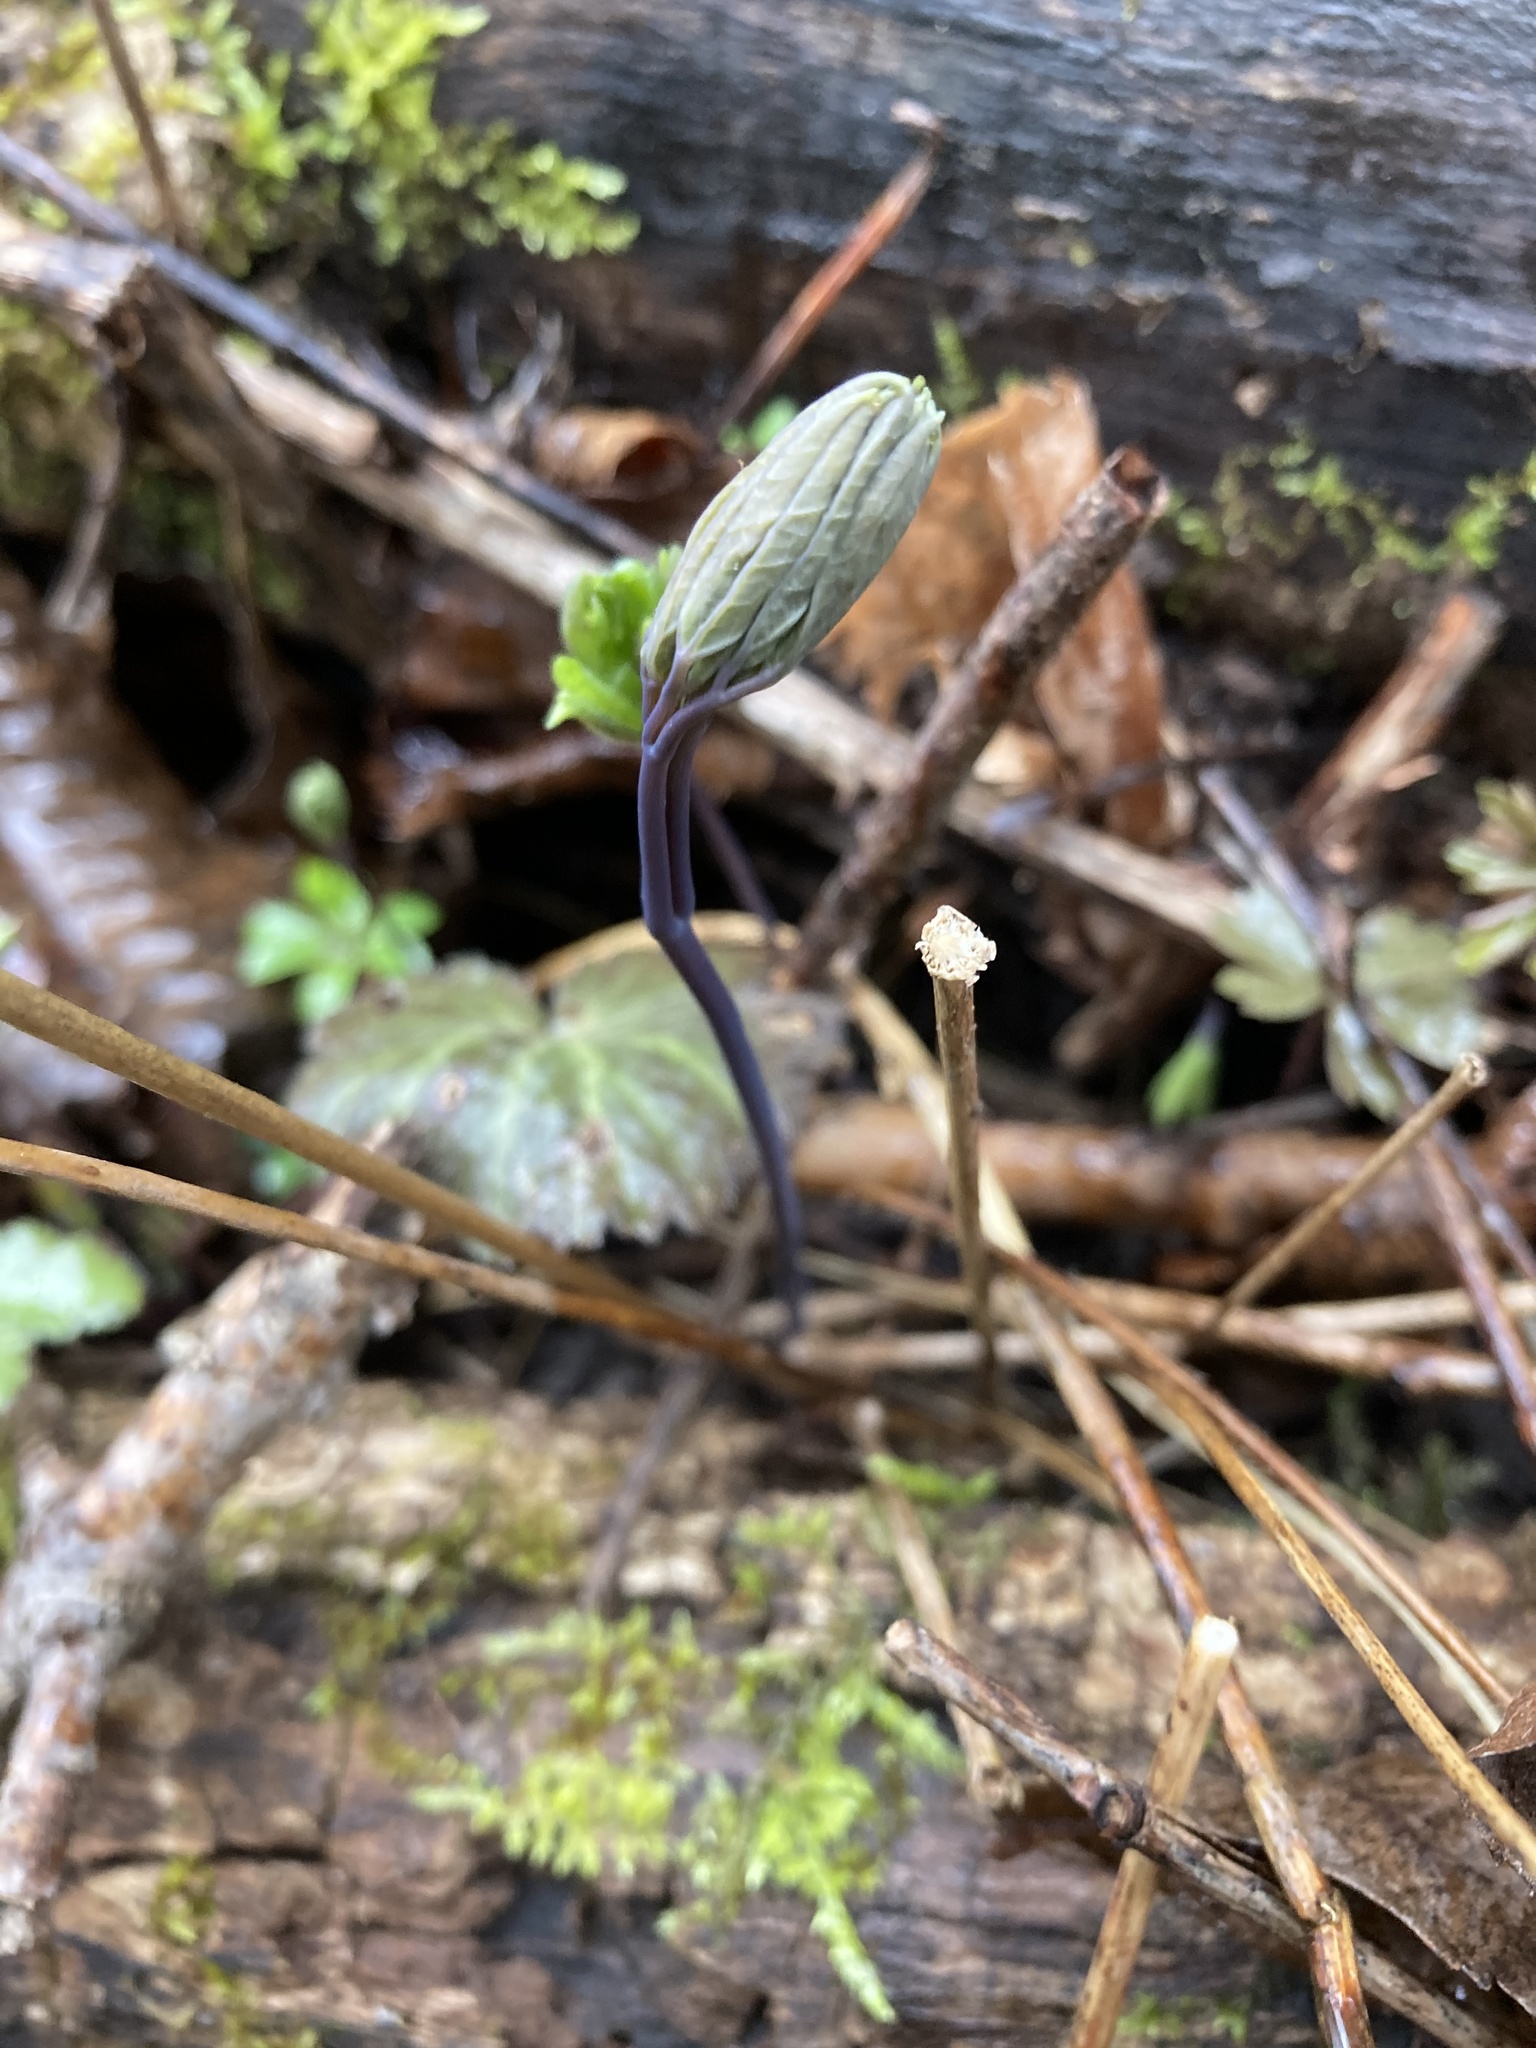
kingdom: Plantae
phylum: Tracheophyta
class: Magnoliopsida
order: Ranunculales
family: Berberidaceae
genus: Caulophyllum
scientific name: Caulophyllum giganteum
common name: Blue cohosh
